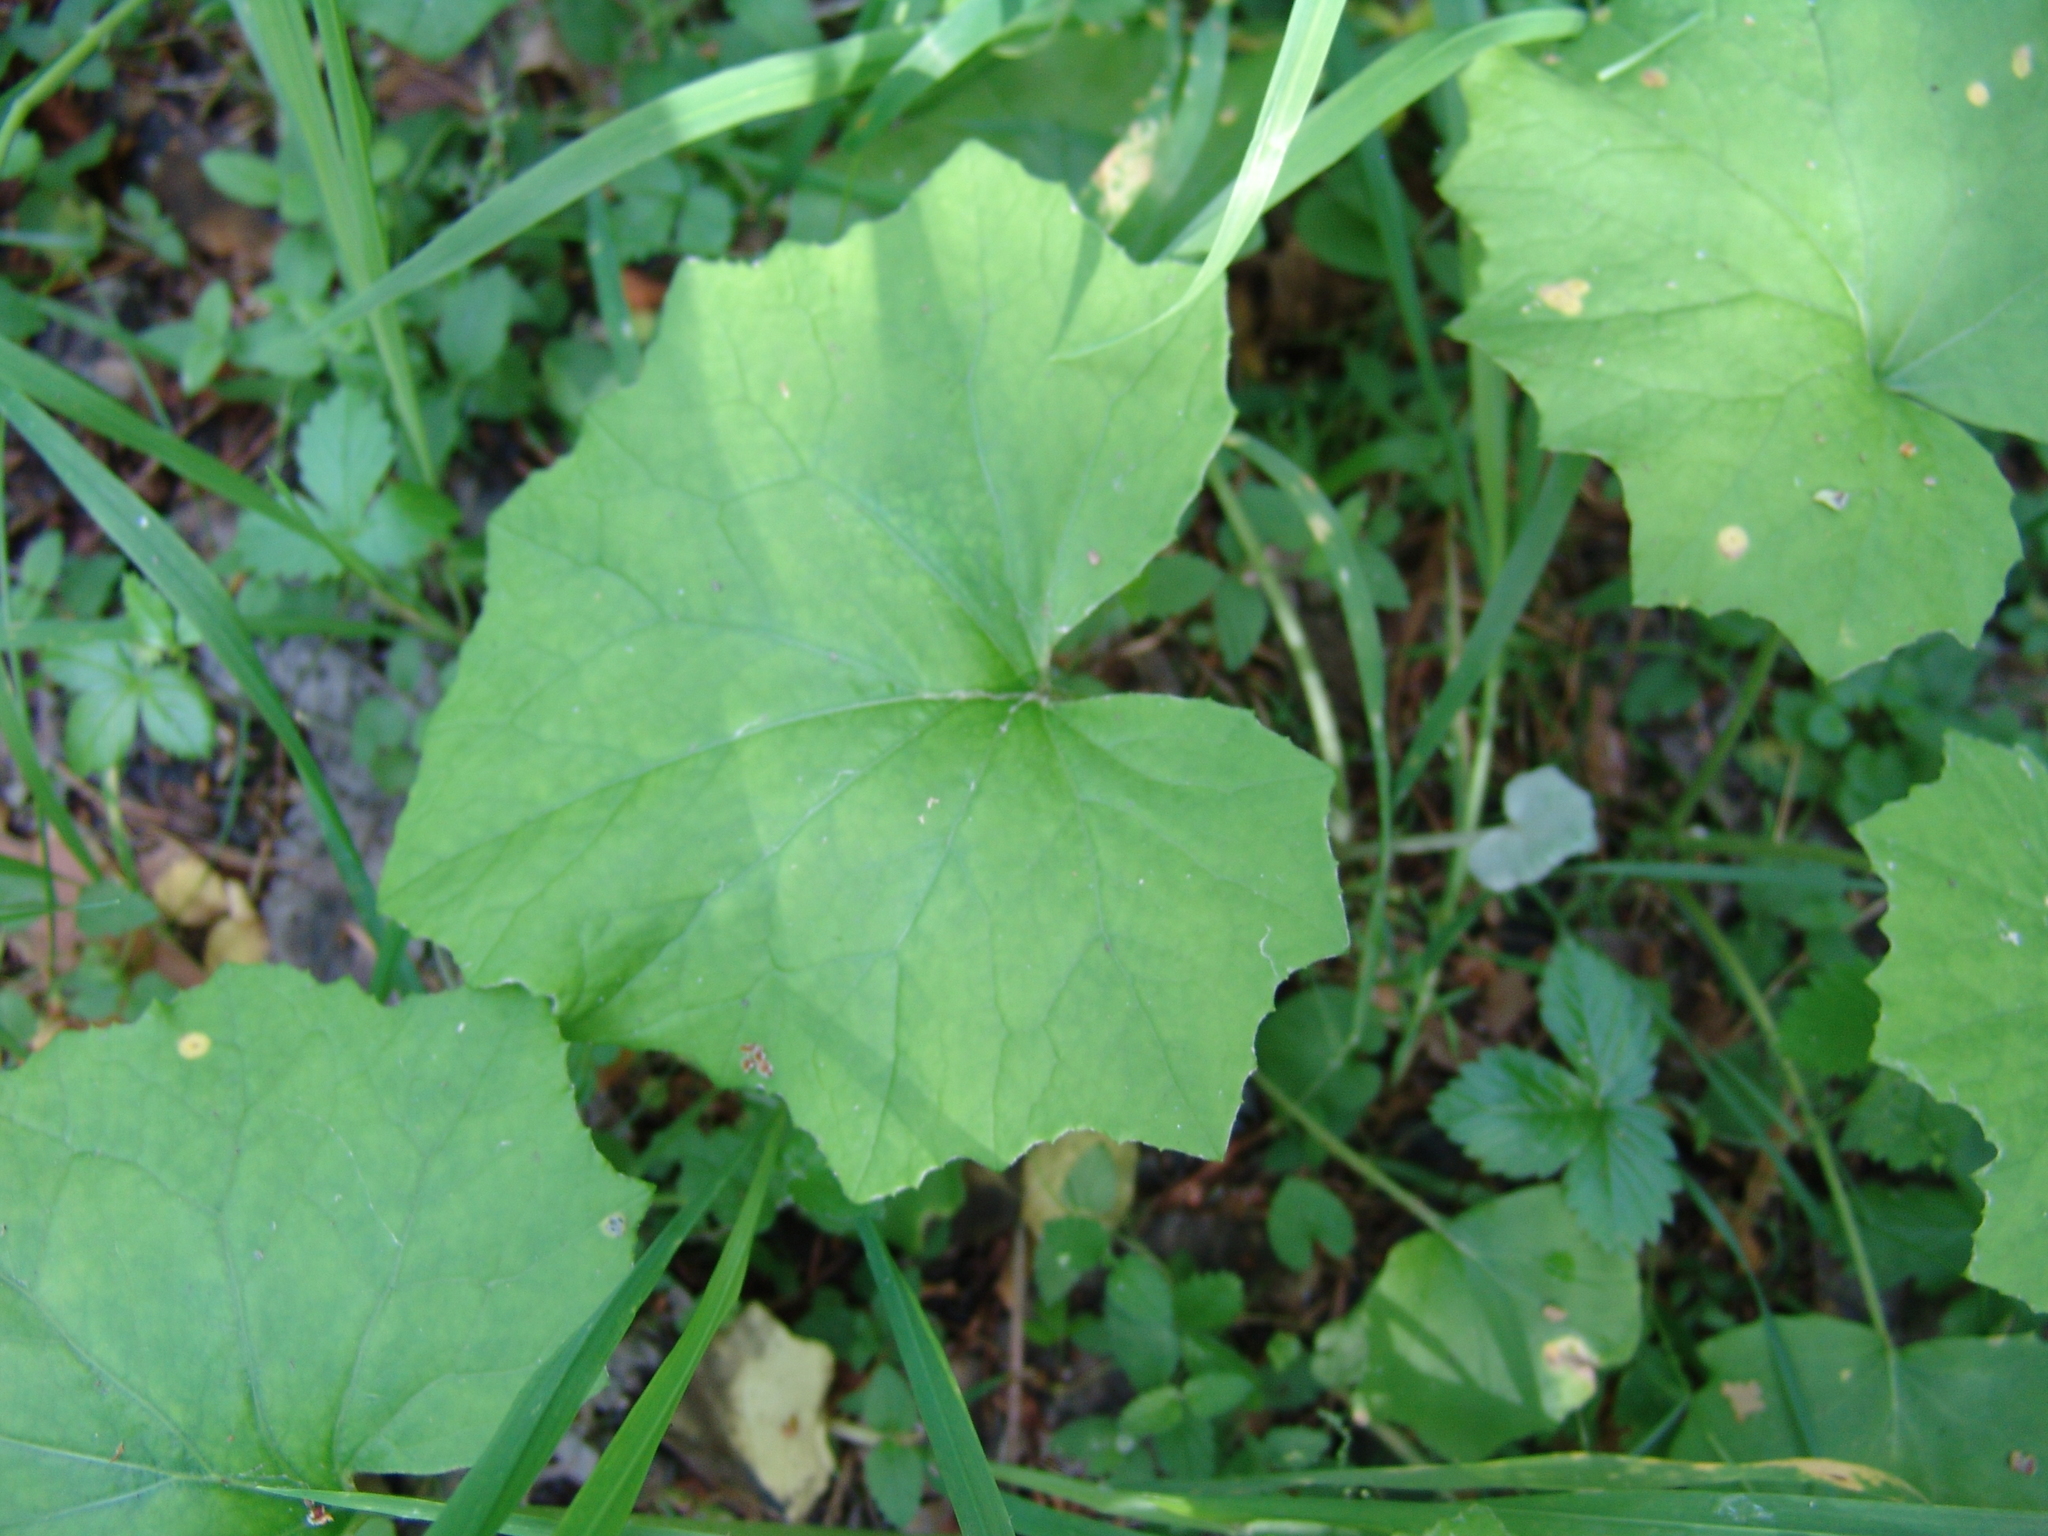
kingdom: Plantae
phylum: Tracheophyta
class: Magnoliopsida
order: Asterales
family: Asteraceae
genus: Tussilago
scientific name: Tussilago farfara
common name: Coltsfoot
